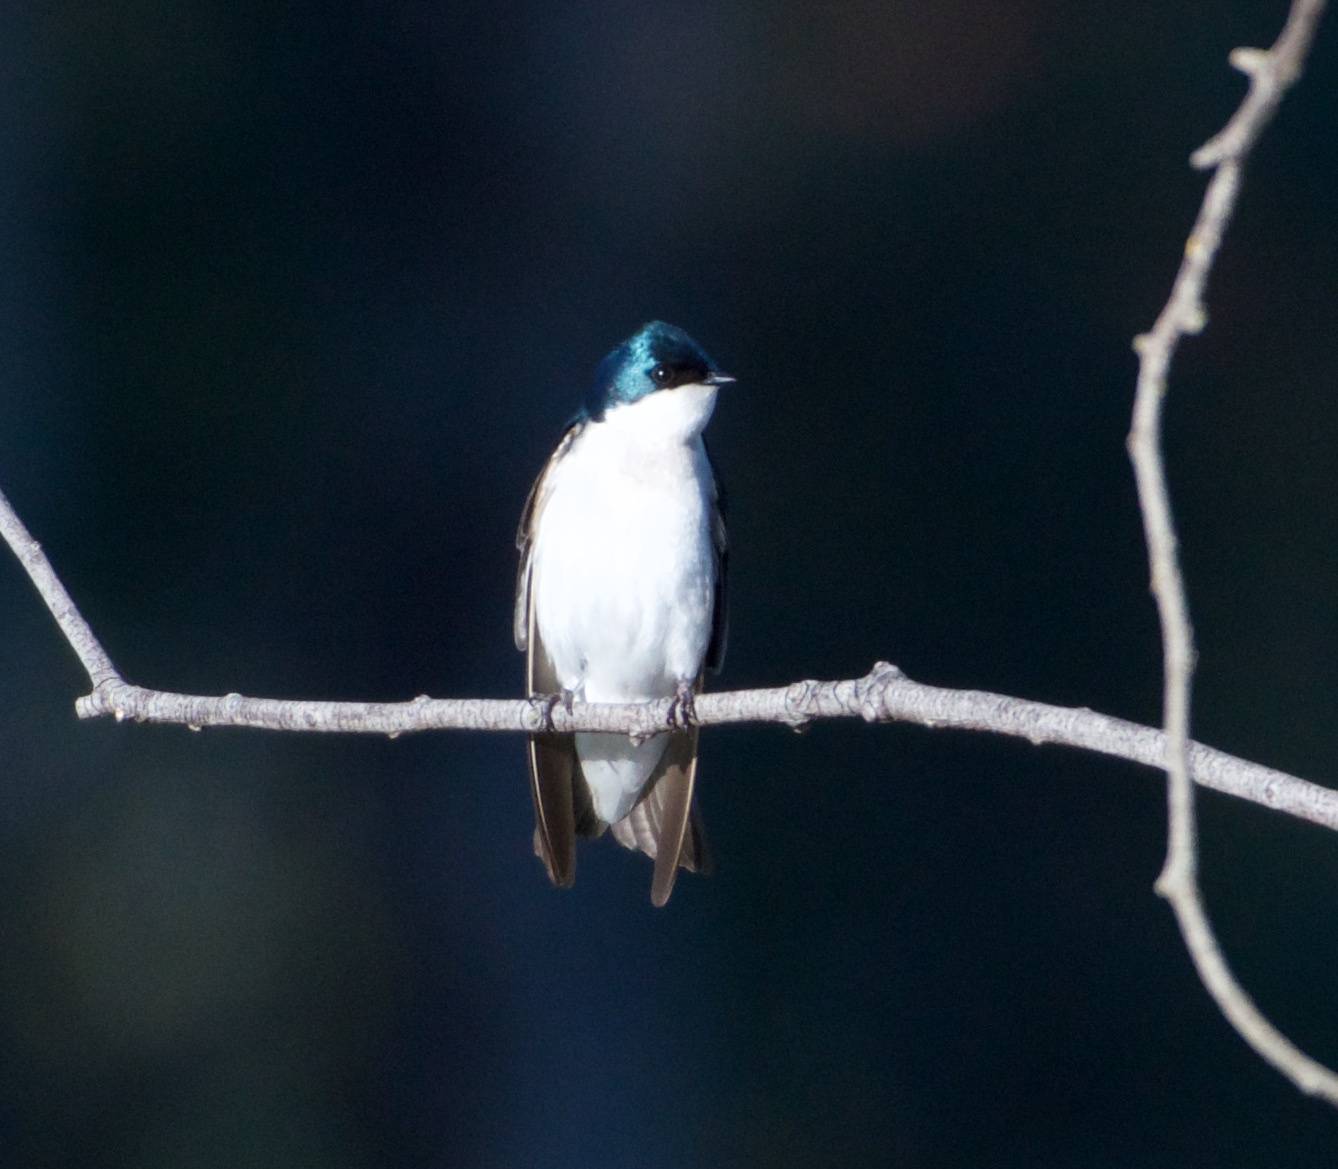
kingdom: Animalia
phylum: Chordata
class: Aves
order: Passeriformes
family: Hirundinidae
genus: Tachycineta
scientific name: Tachycineta bicolor
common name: Tree swallow
